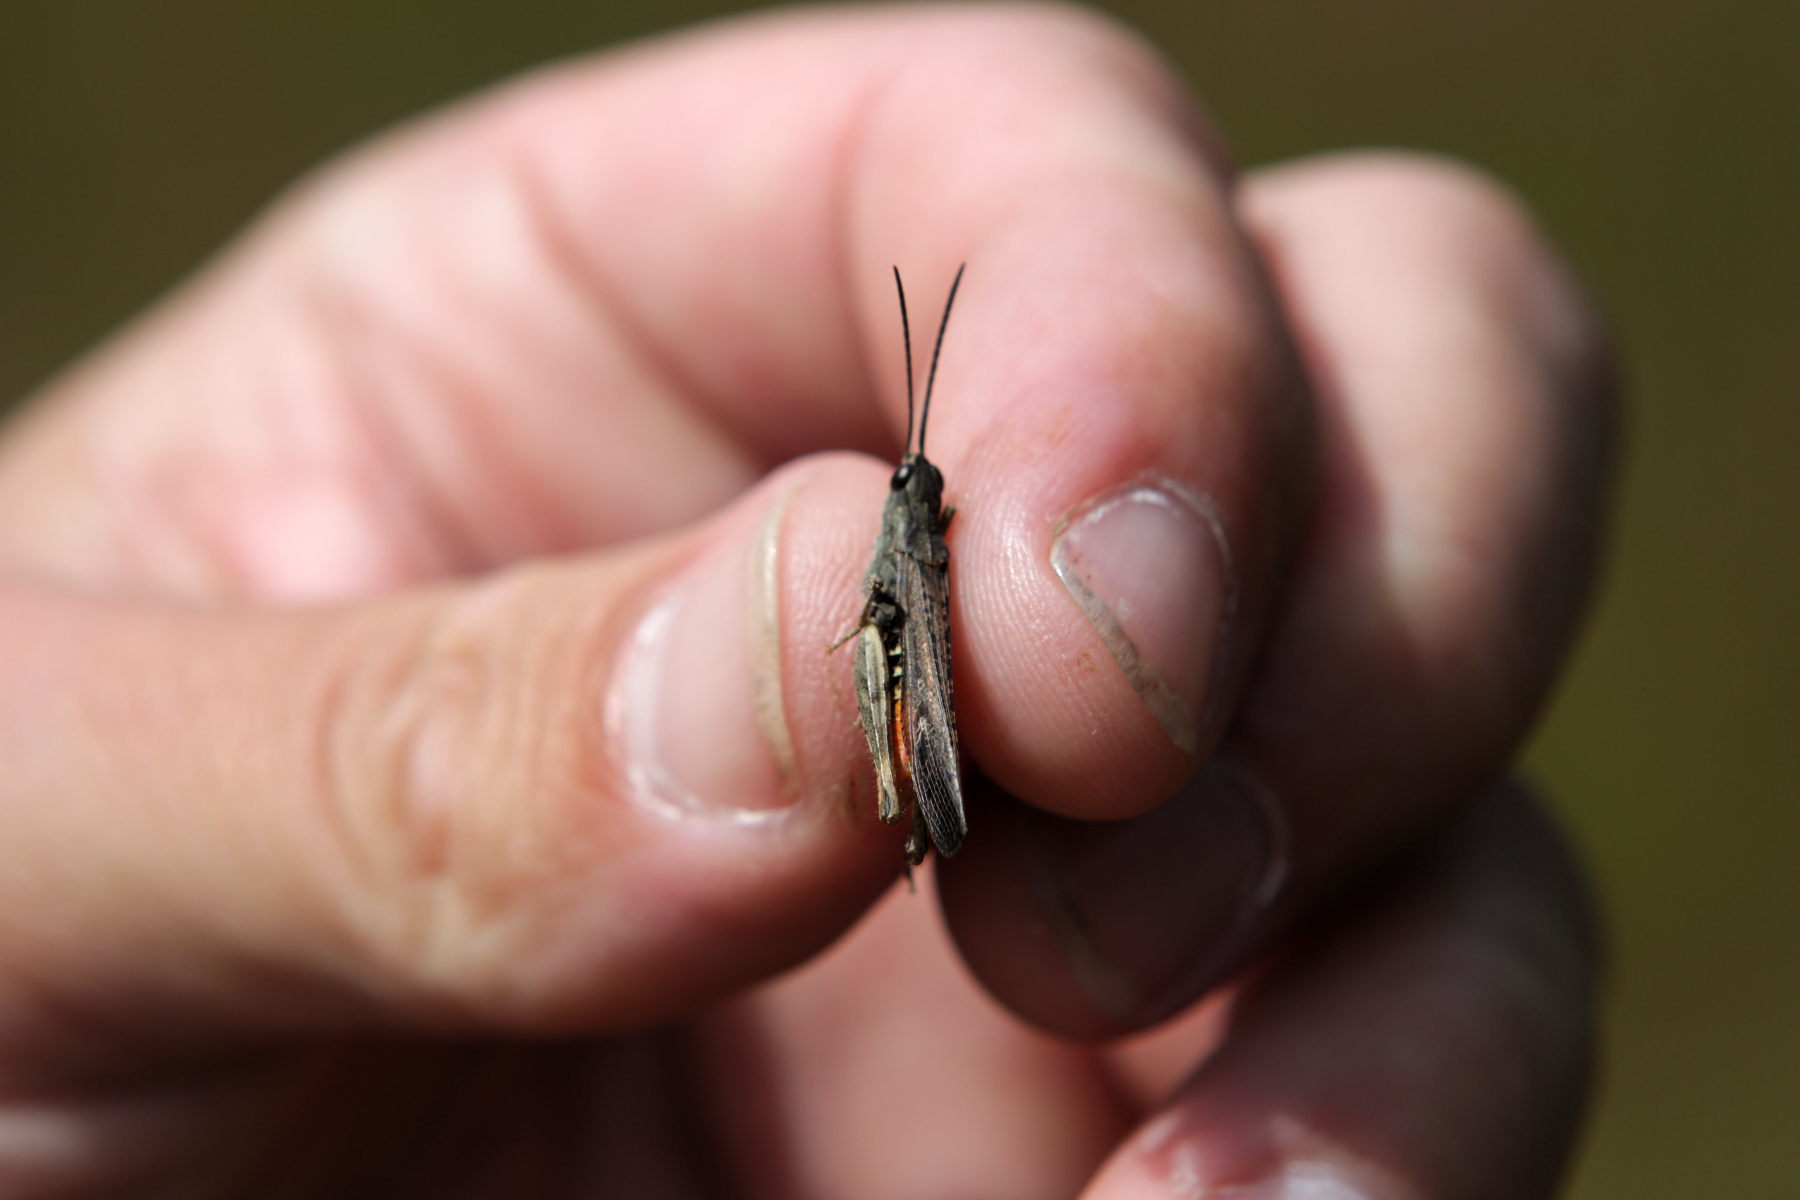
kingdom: Animalia
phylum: Arthropoda
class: Insecta
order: Orthoptera
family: Acrididae
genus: Chorthippus
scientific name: Chorthippus brunneus
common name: Field grasshopper
